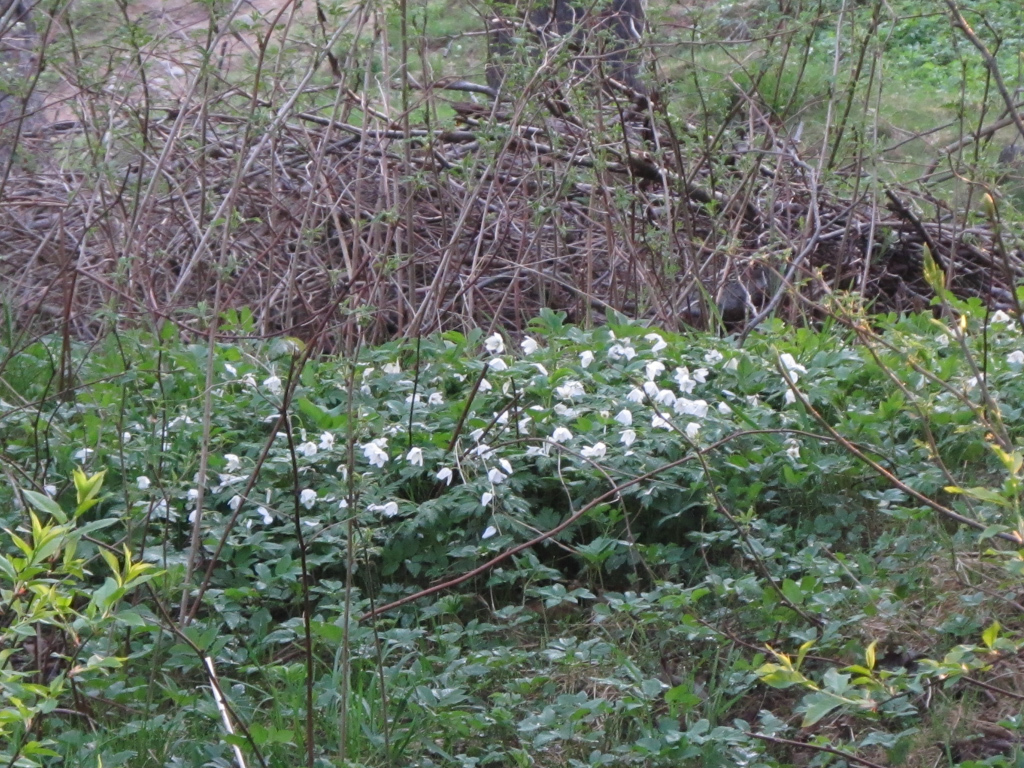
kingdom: Plantae
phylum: Tracheophyta
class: Magnoliopsida
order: Ranunculales
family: Ranunculaceae
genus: Anemone
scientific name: Anemone nemorosa
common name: Wood anemone
